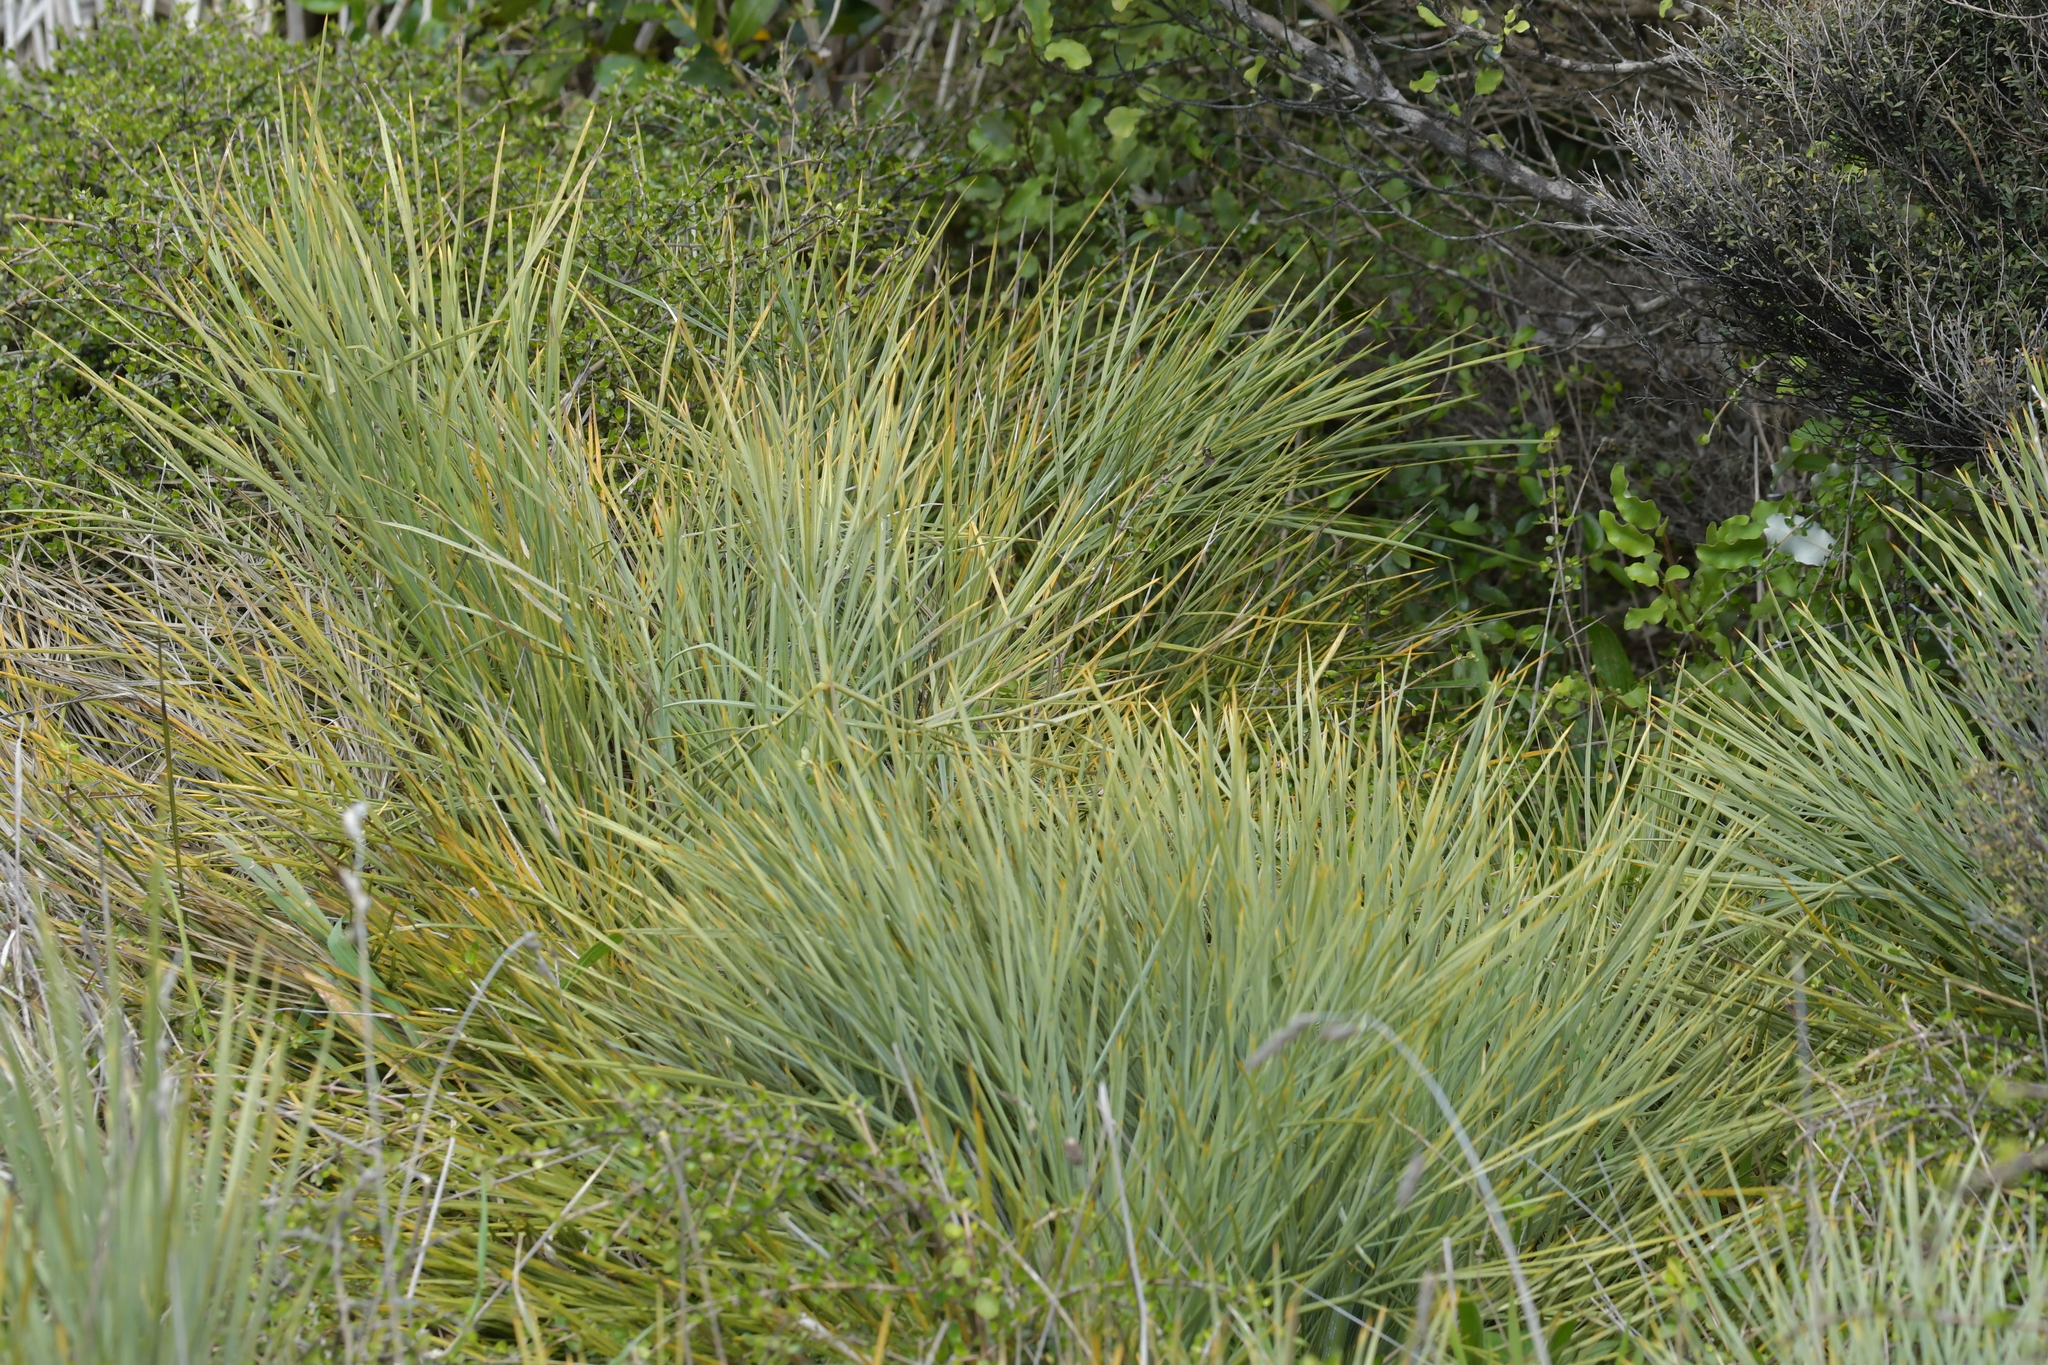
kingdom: Plantae
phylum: Tracheophyta
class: Magnoliopsida
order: Apiales
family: Apiaceae
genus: Aciphylla
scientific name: Aciphylla squarrosa
